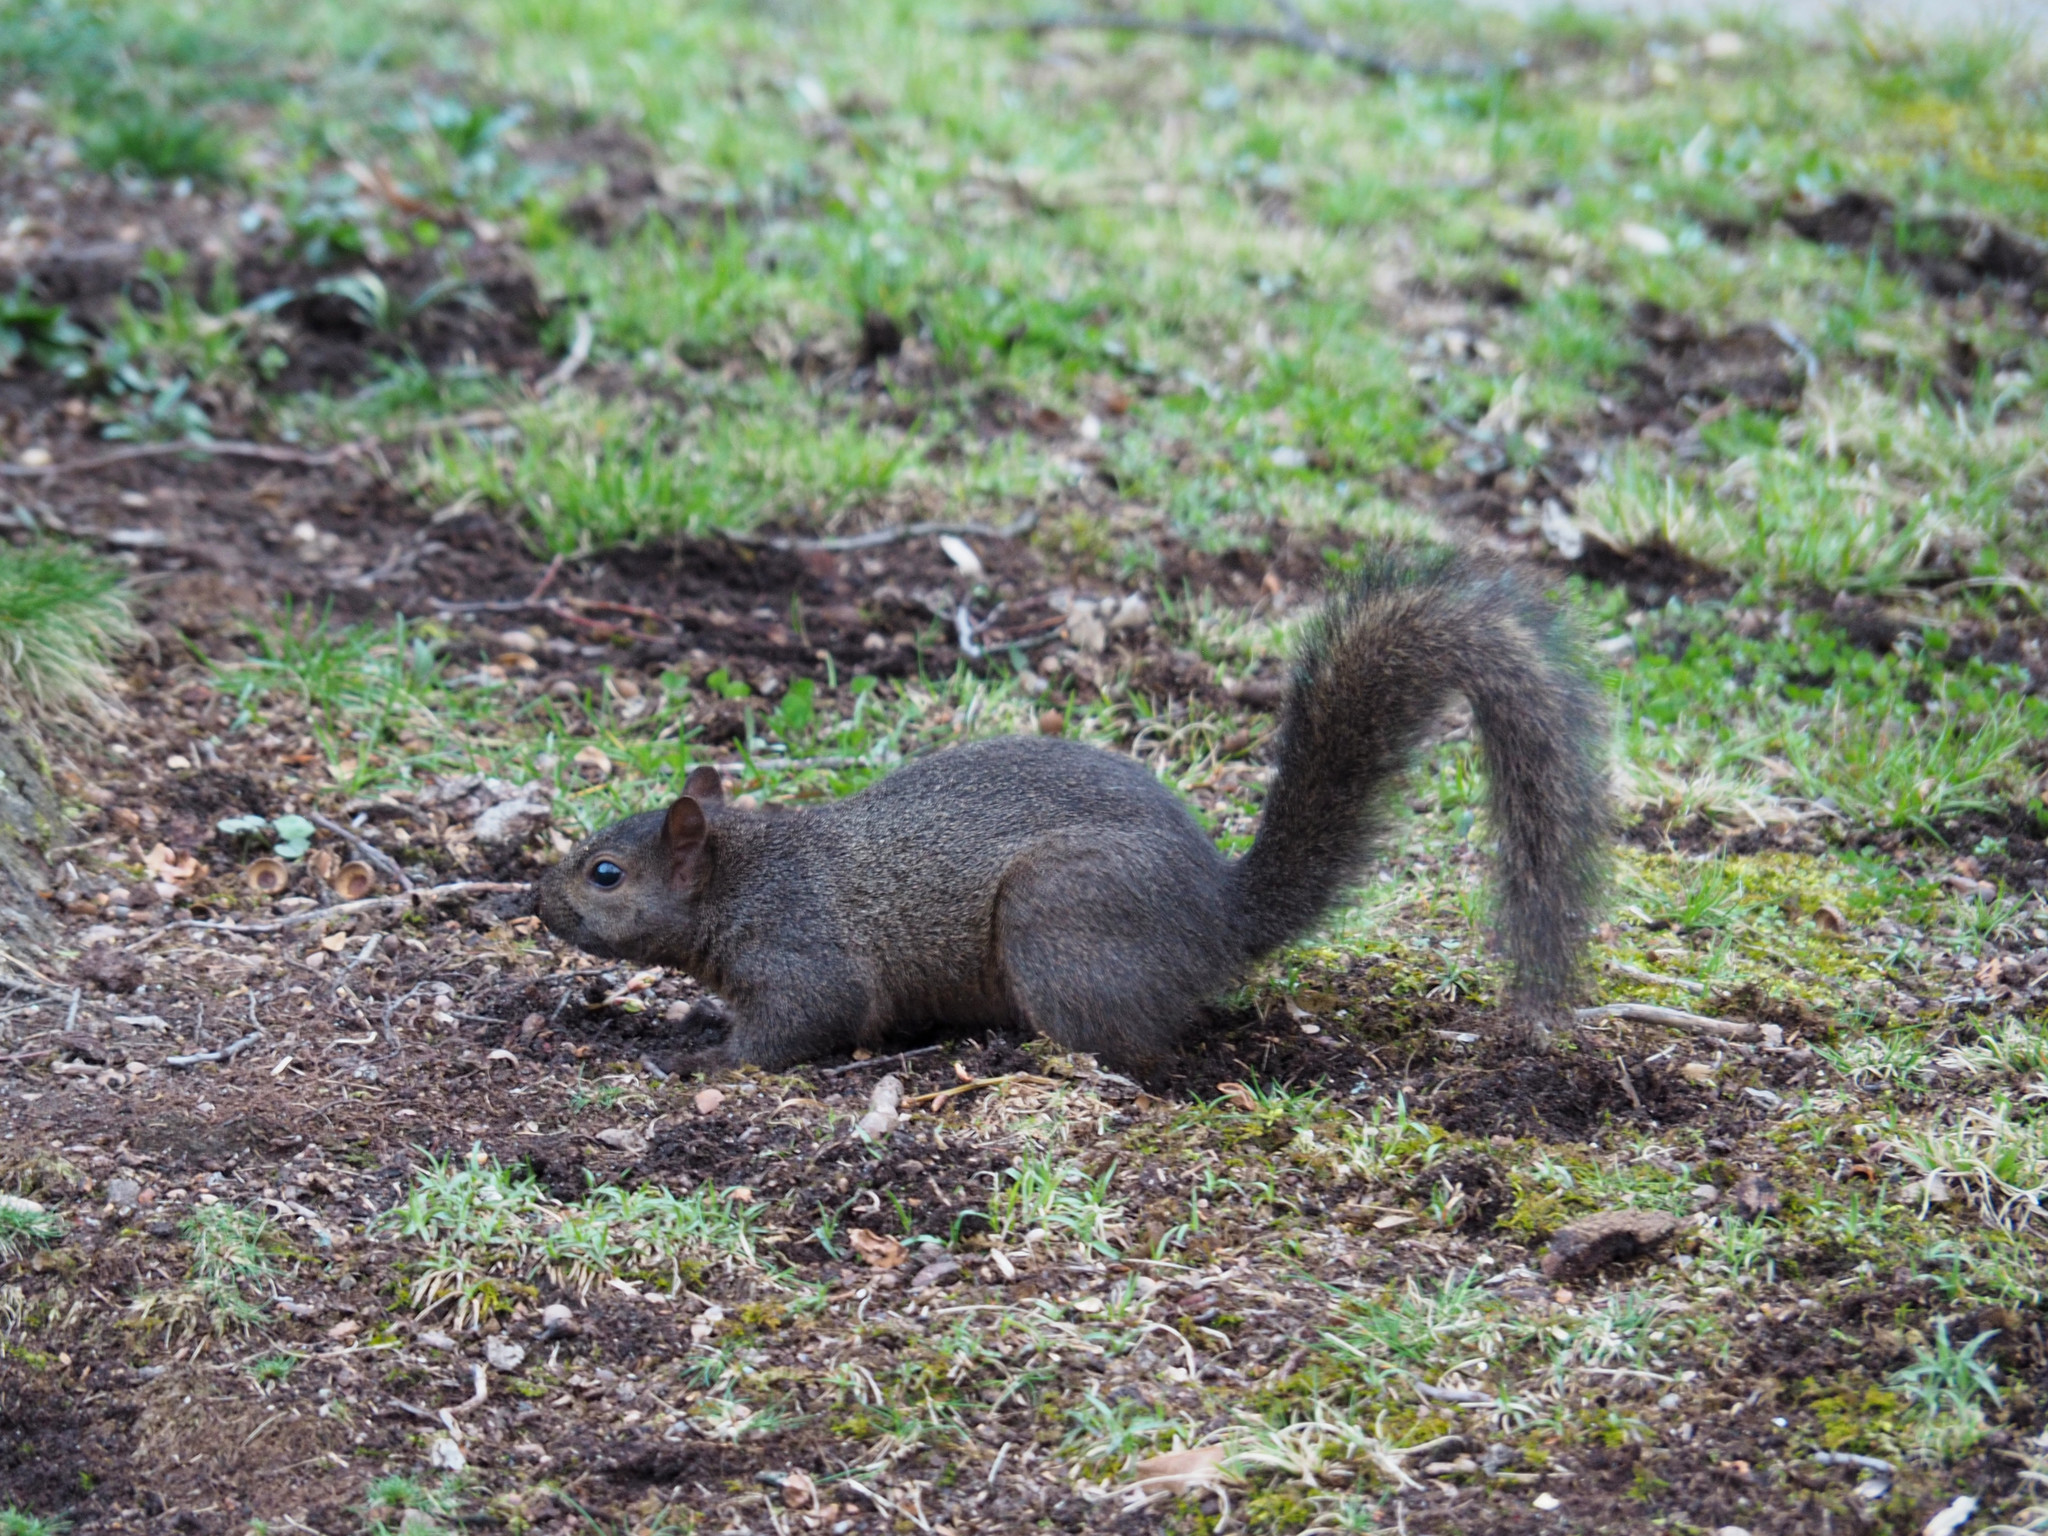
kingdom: Animalia
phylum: Chordata
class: Mammalia
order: Rodentia
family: Sciuridae
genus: Sciurus
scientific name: Sciurus carolinensis
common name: Eastern gray squirrel
